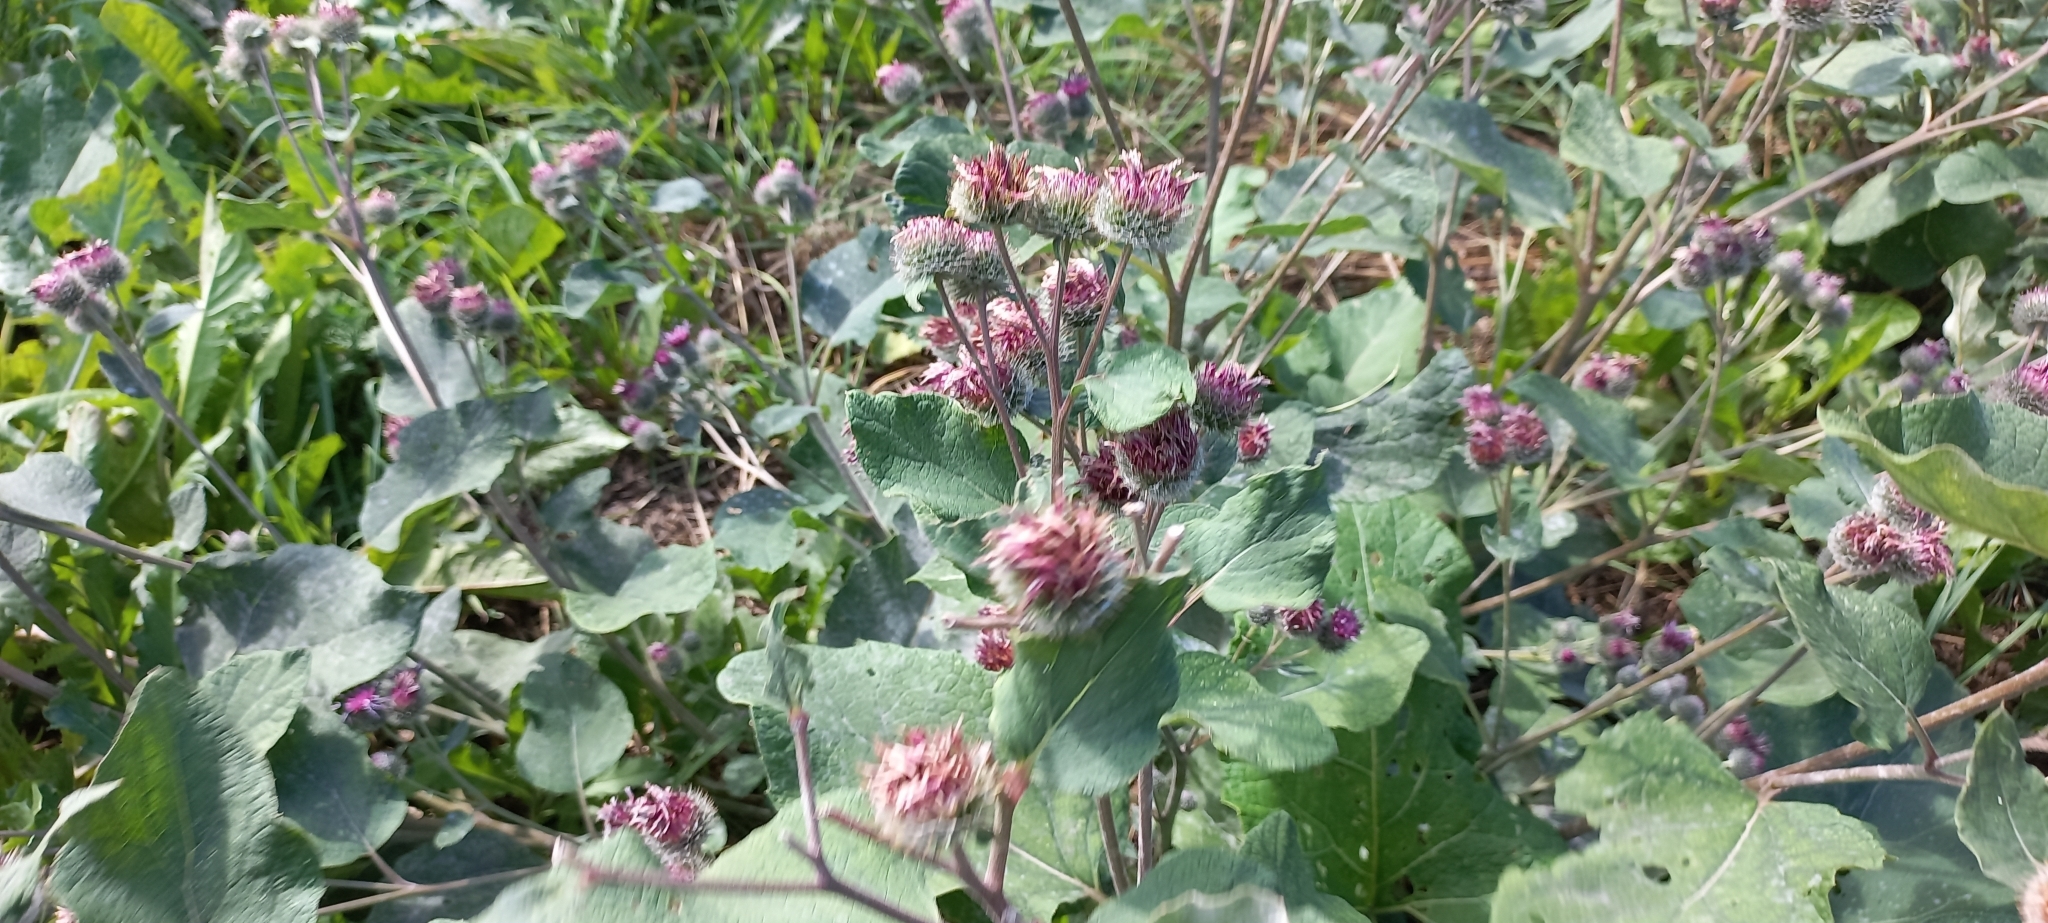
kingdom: Plantae
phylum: Tracheophyta
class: Magnoliopsida
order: Asterales
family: Asteraceae
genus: Arctium
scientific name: Arctium tomentosum
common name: Woolly burdock
